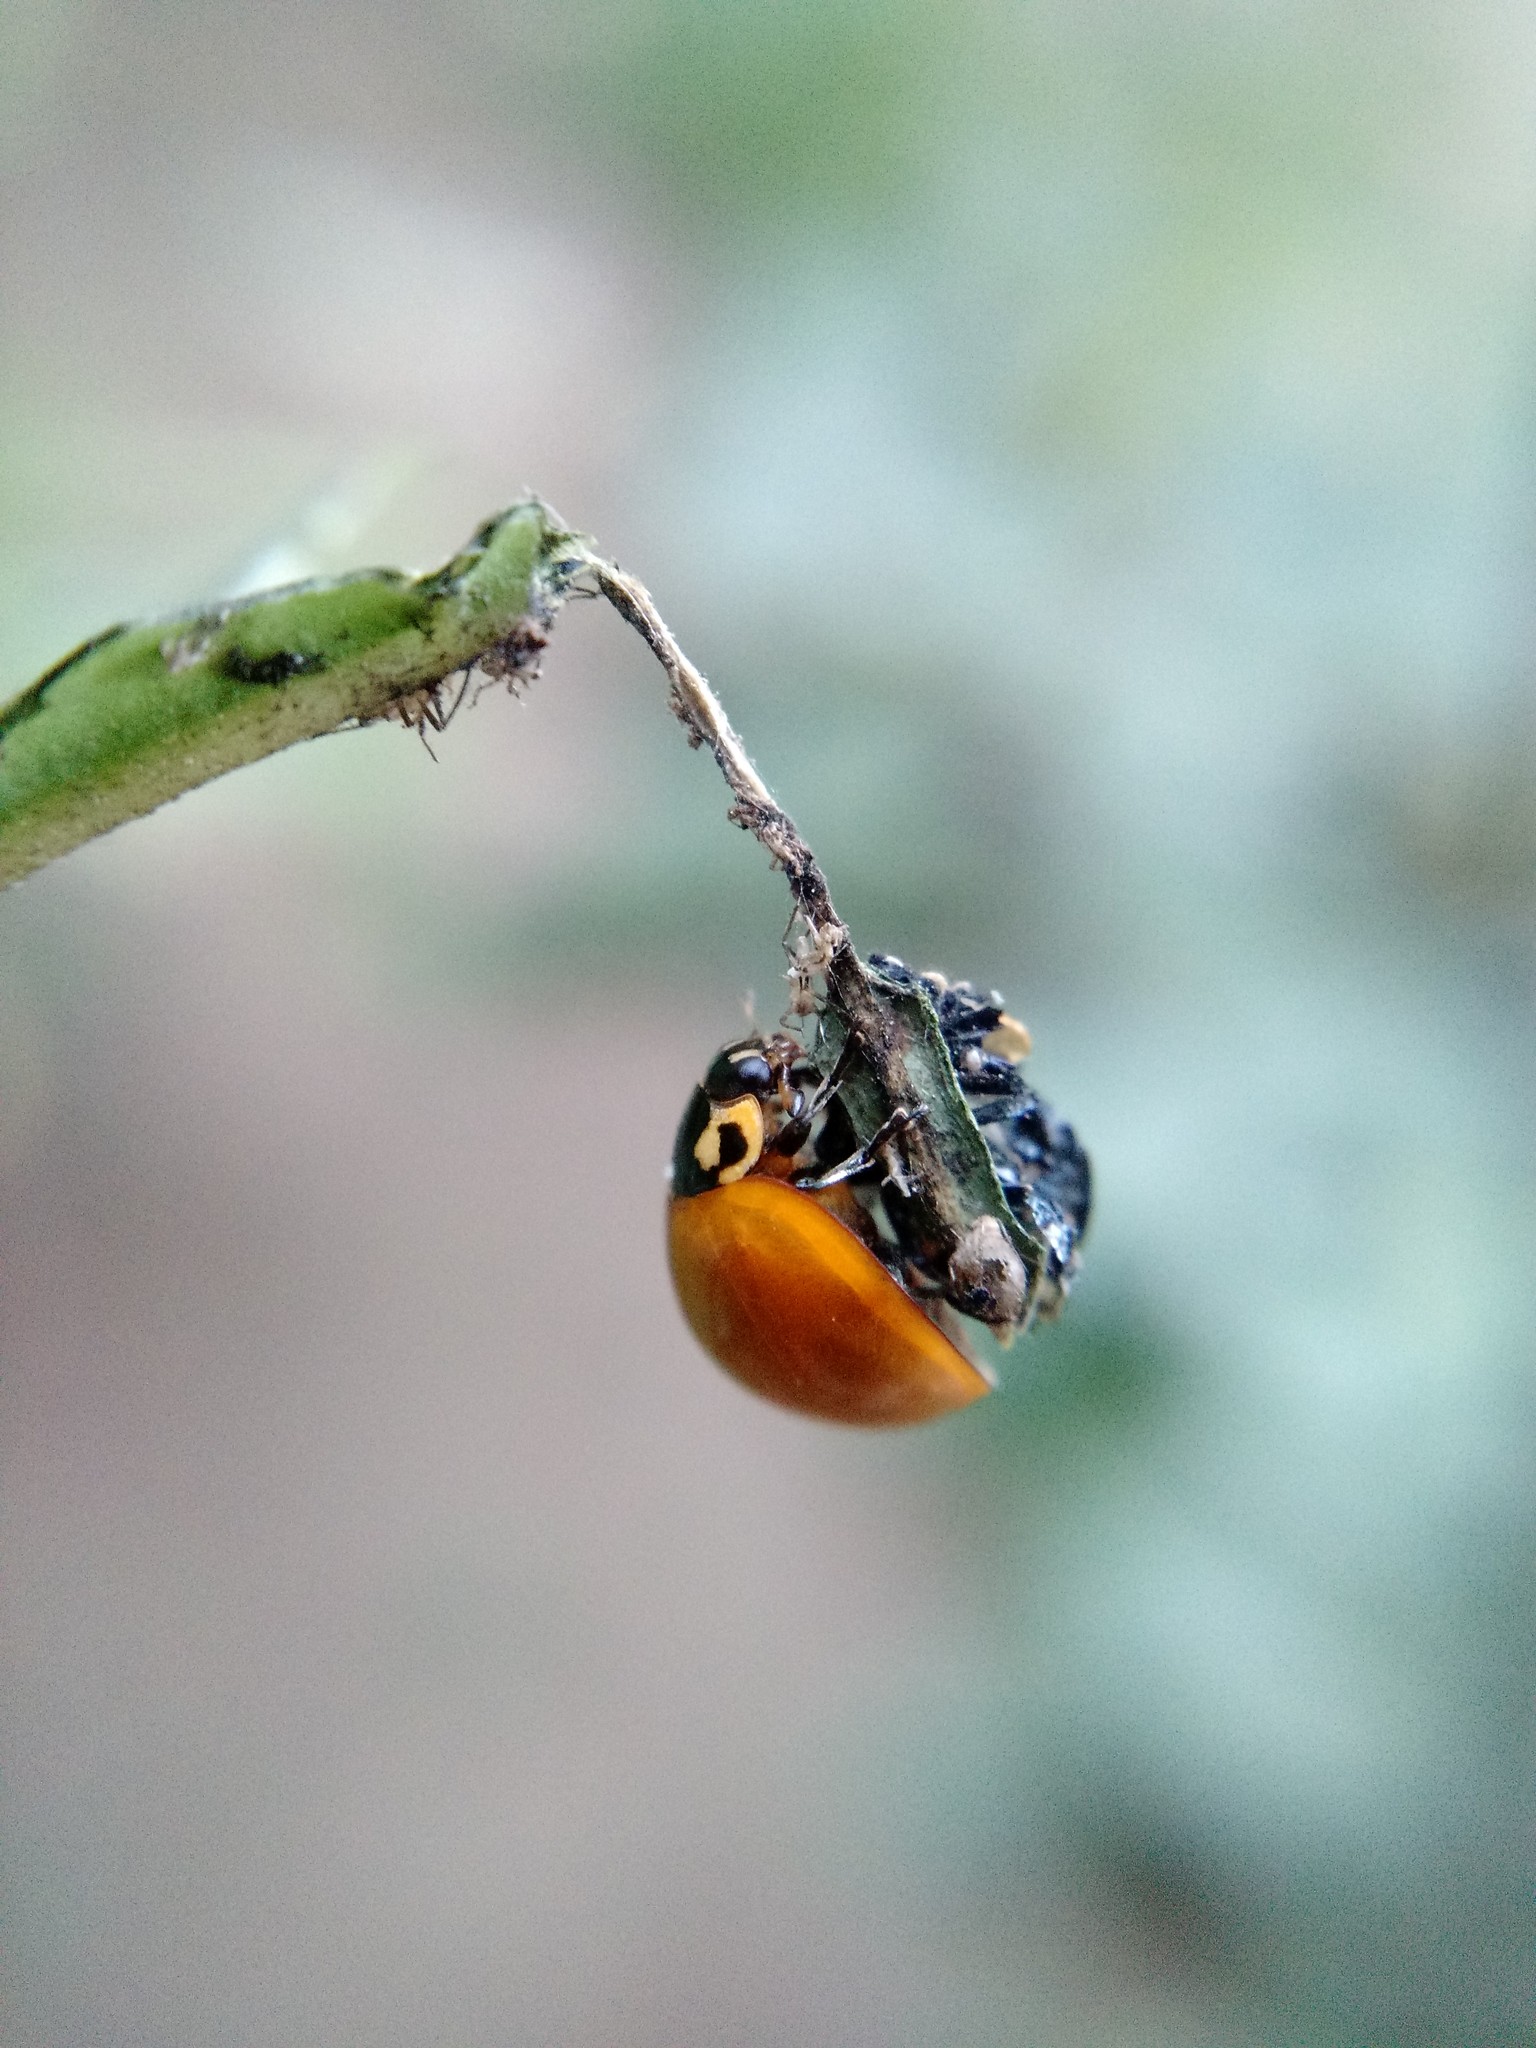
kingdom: Animalia
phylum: Arthropoda
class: Insecta
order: Coleoptera
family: Coccinellidae
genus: Cycloneda
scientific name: Cycloneda sanguinea
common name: Ladybird beetle
